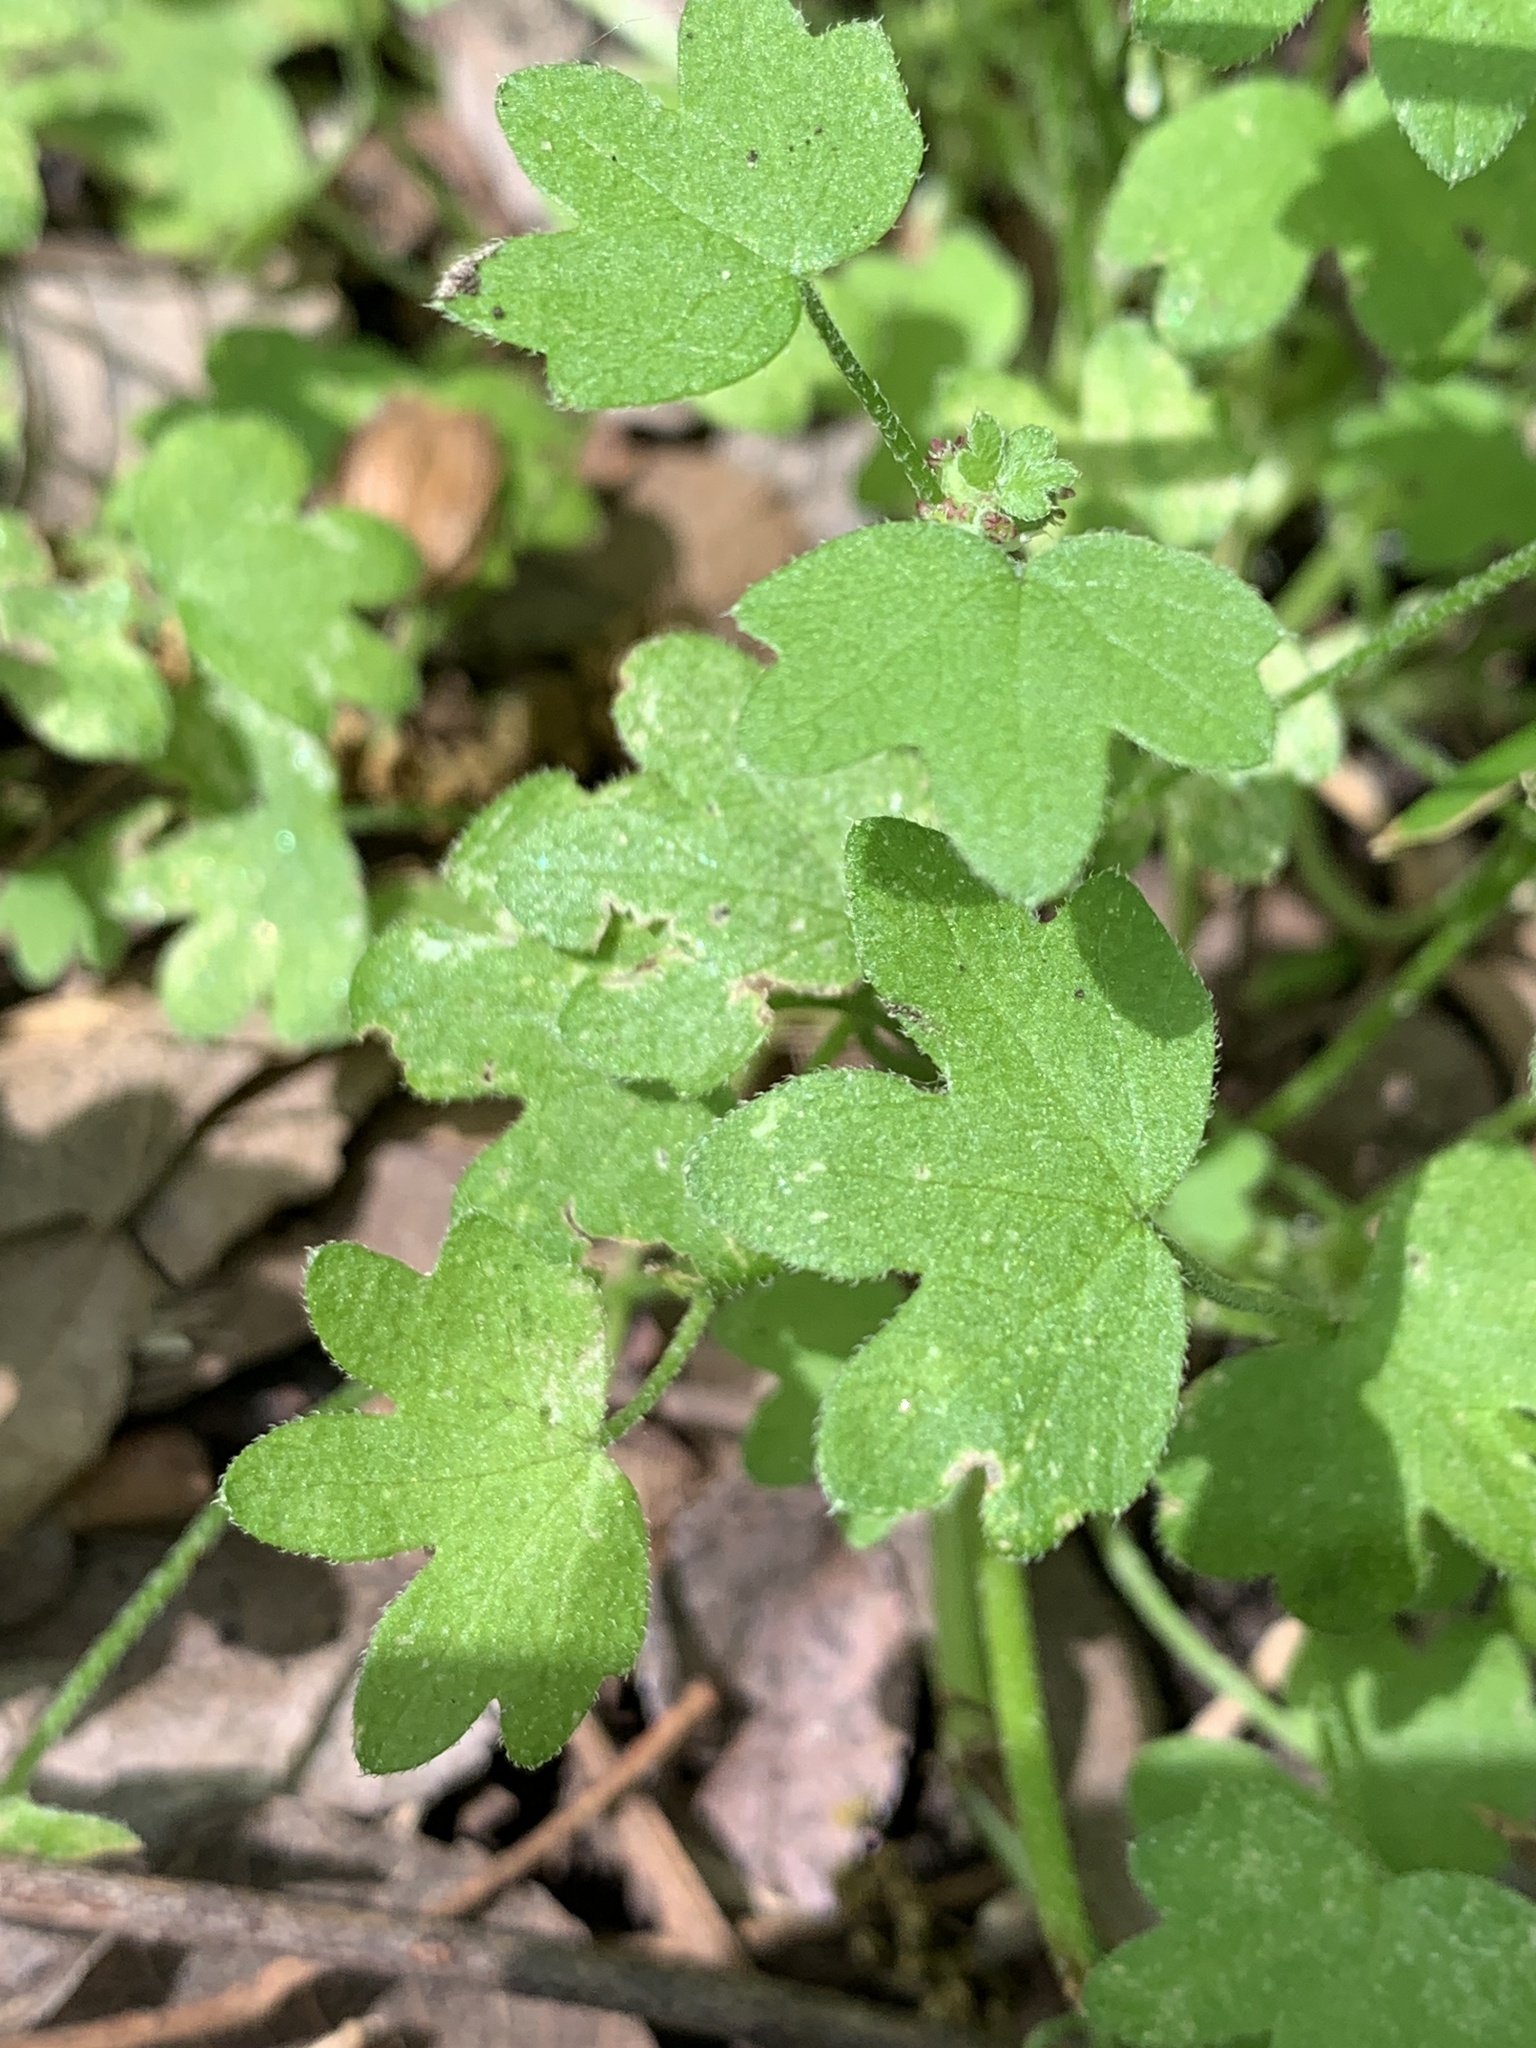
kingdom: Plantae
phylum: Tracheophyta
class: Magnoliopsida
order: Apiales
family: Apiaceae
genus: Bowlesia
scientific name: Bowlesia incana
